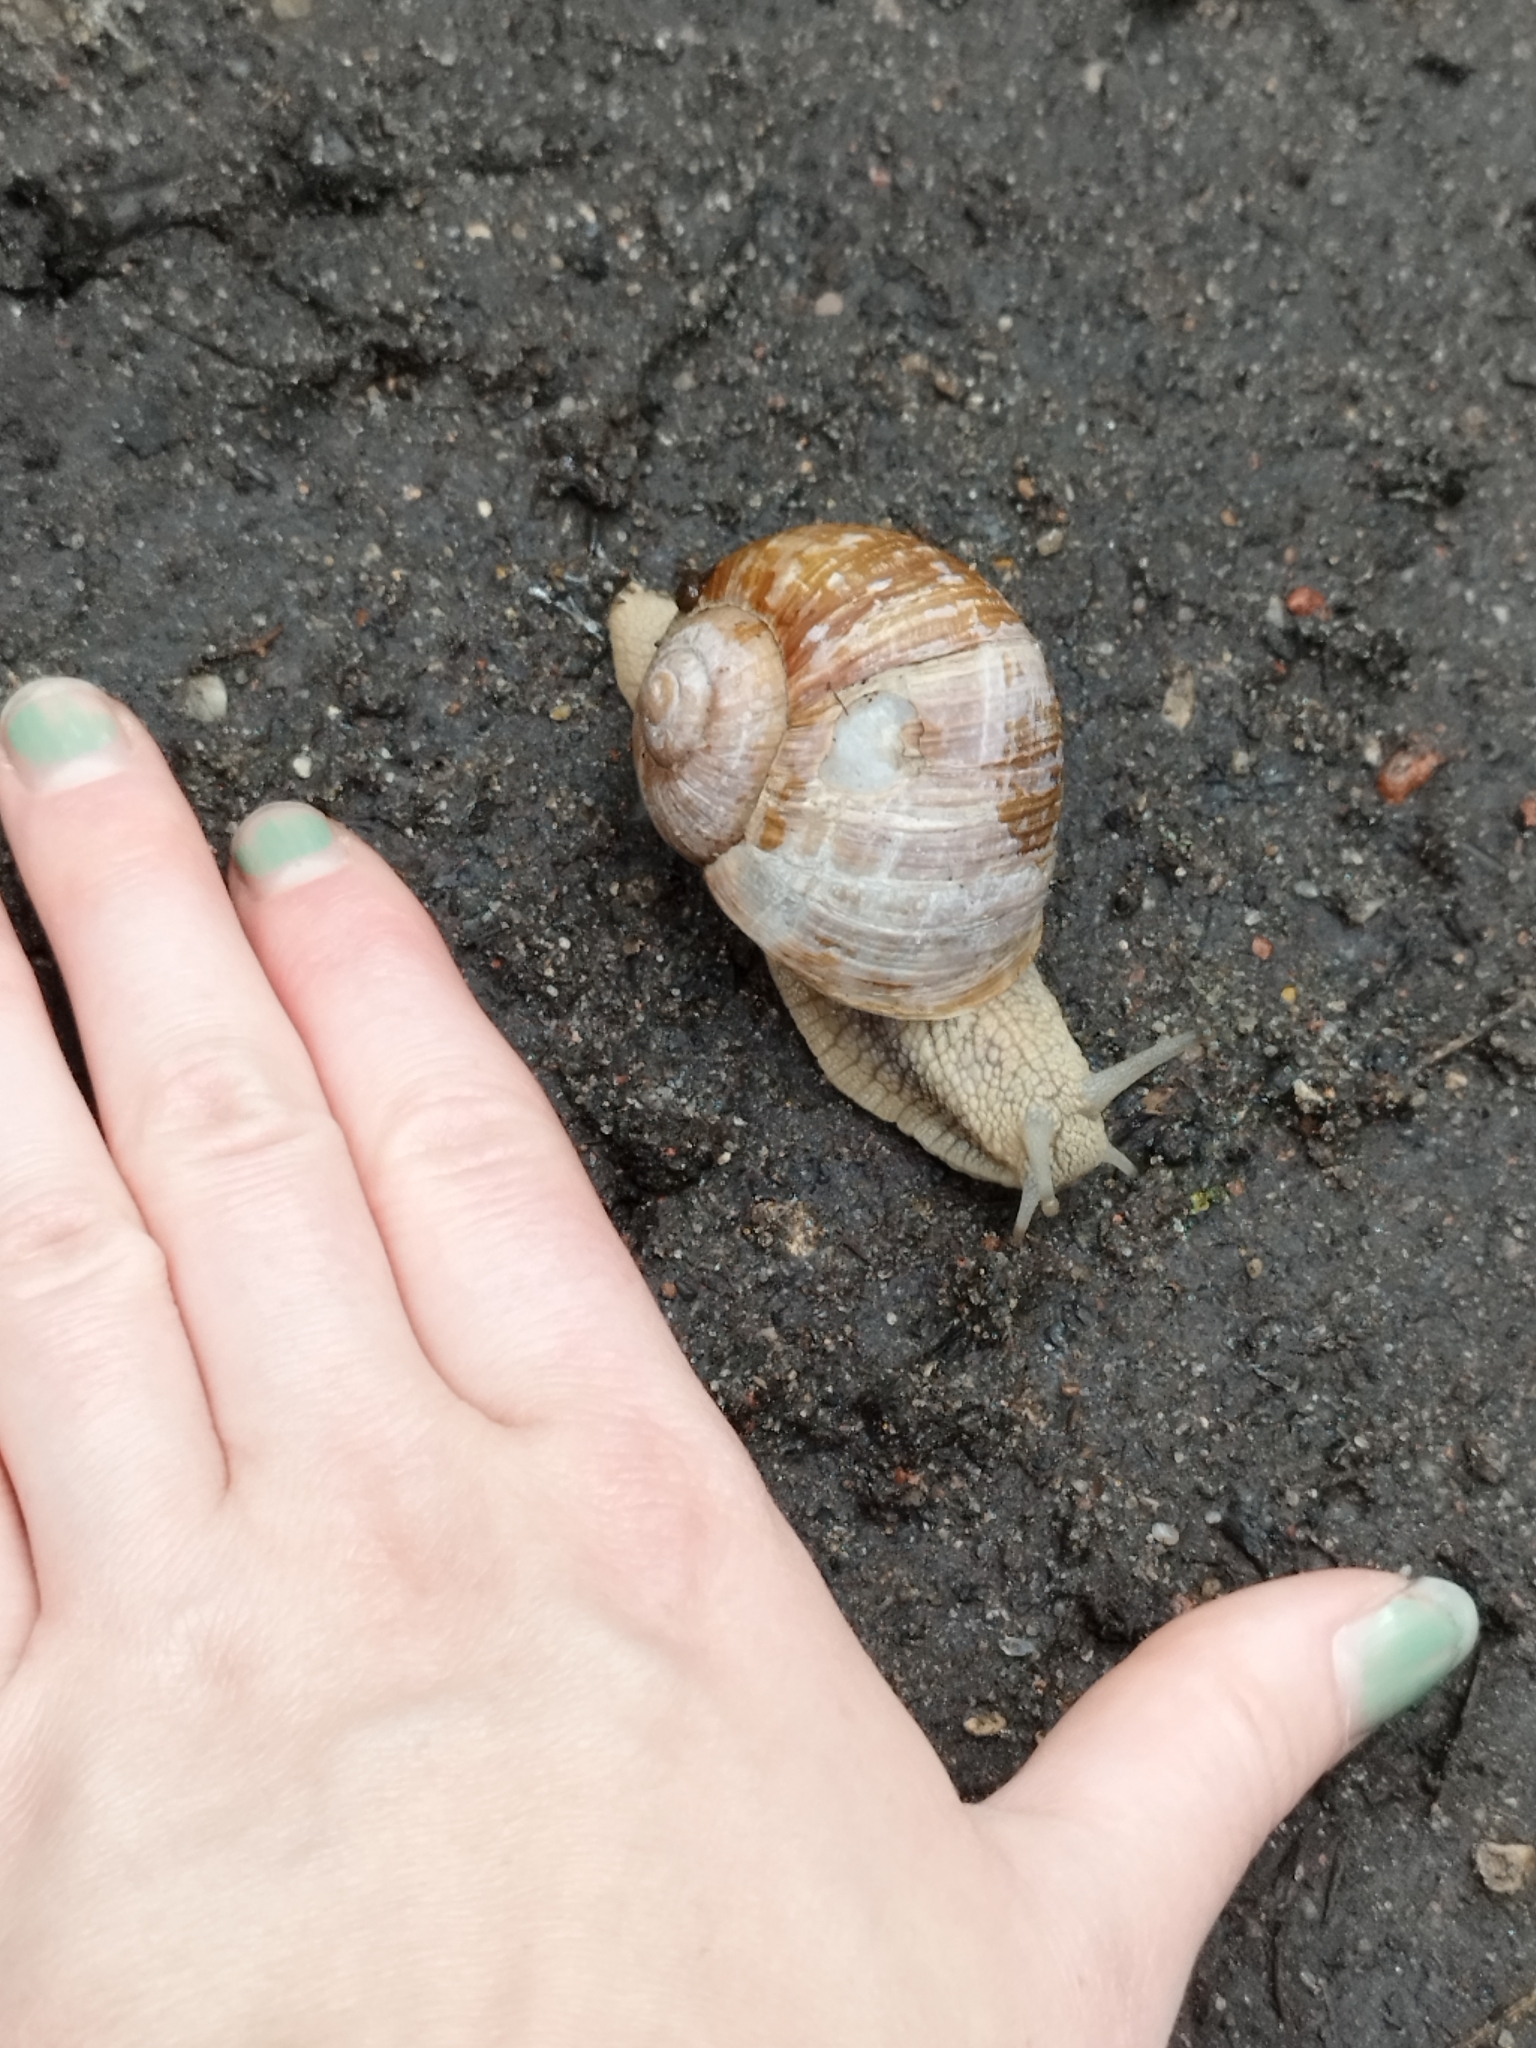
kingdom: Animalia
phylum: Mollusca
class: Gastropoda
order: Stylommatophora
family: Helicidae
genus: Helix
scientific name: Helix pomatia
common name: Roman snail
